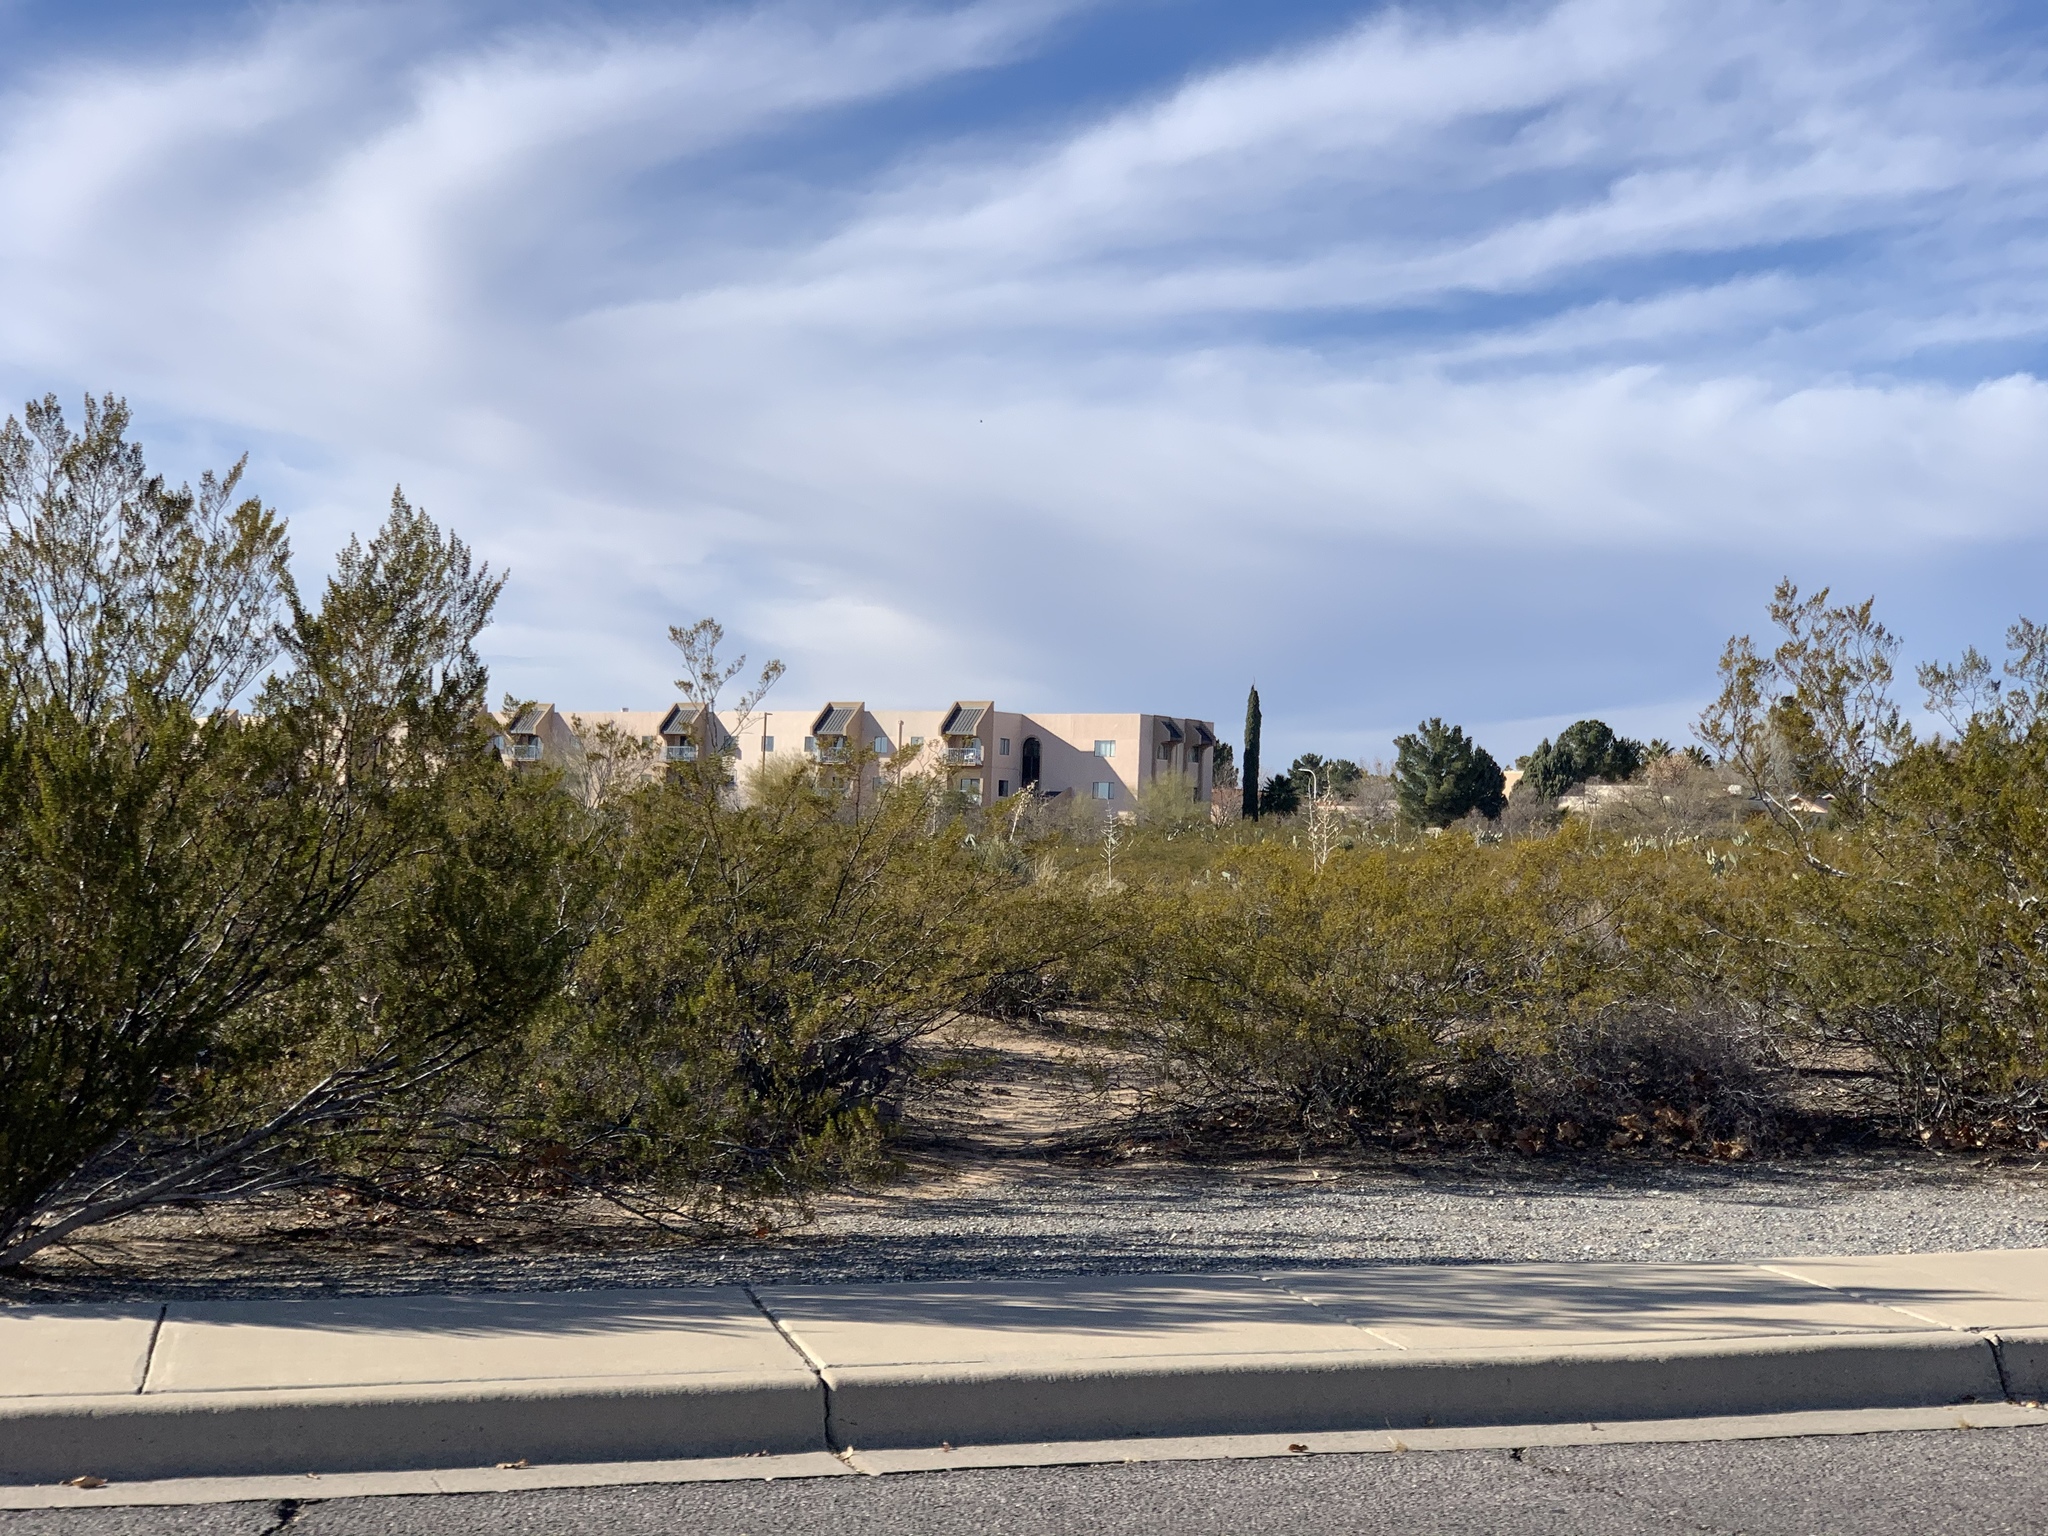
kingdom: Plantae
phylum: Tracheophyta
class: Magnoliopsida
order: Zygophyllales
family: Zygophyllaceae
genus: Larrea
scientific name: Larrea tridentata
